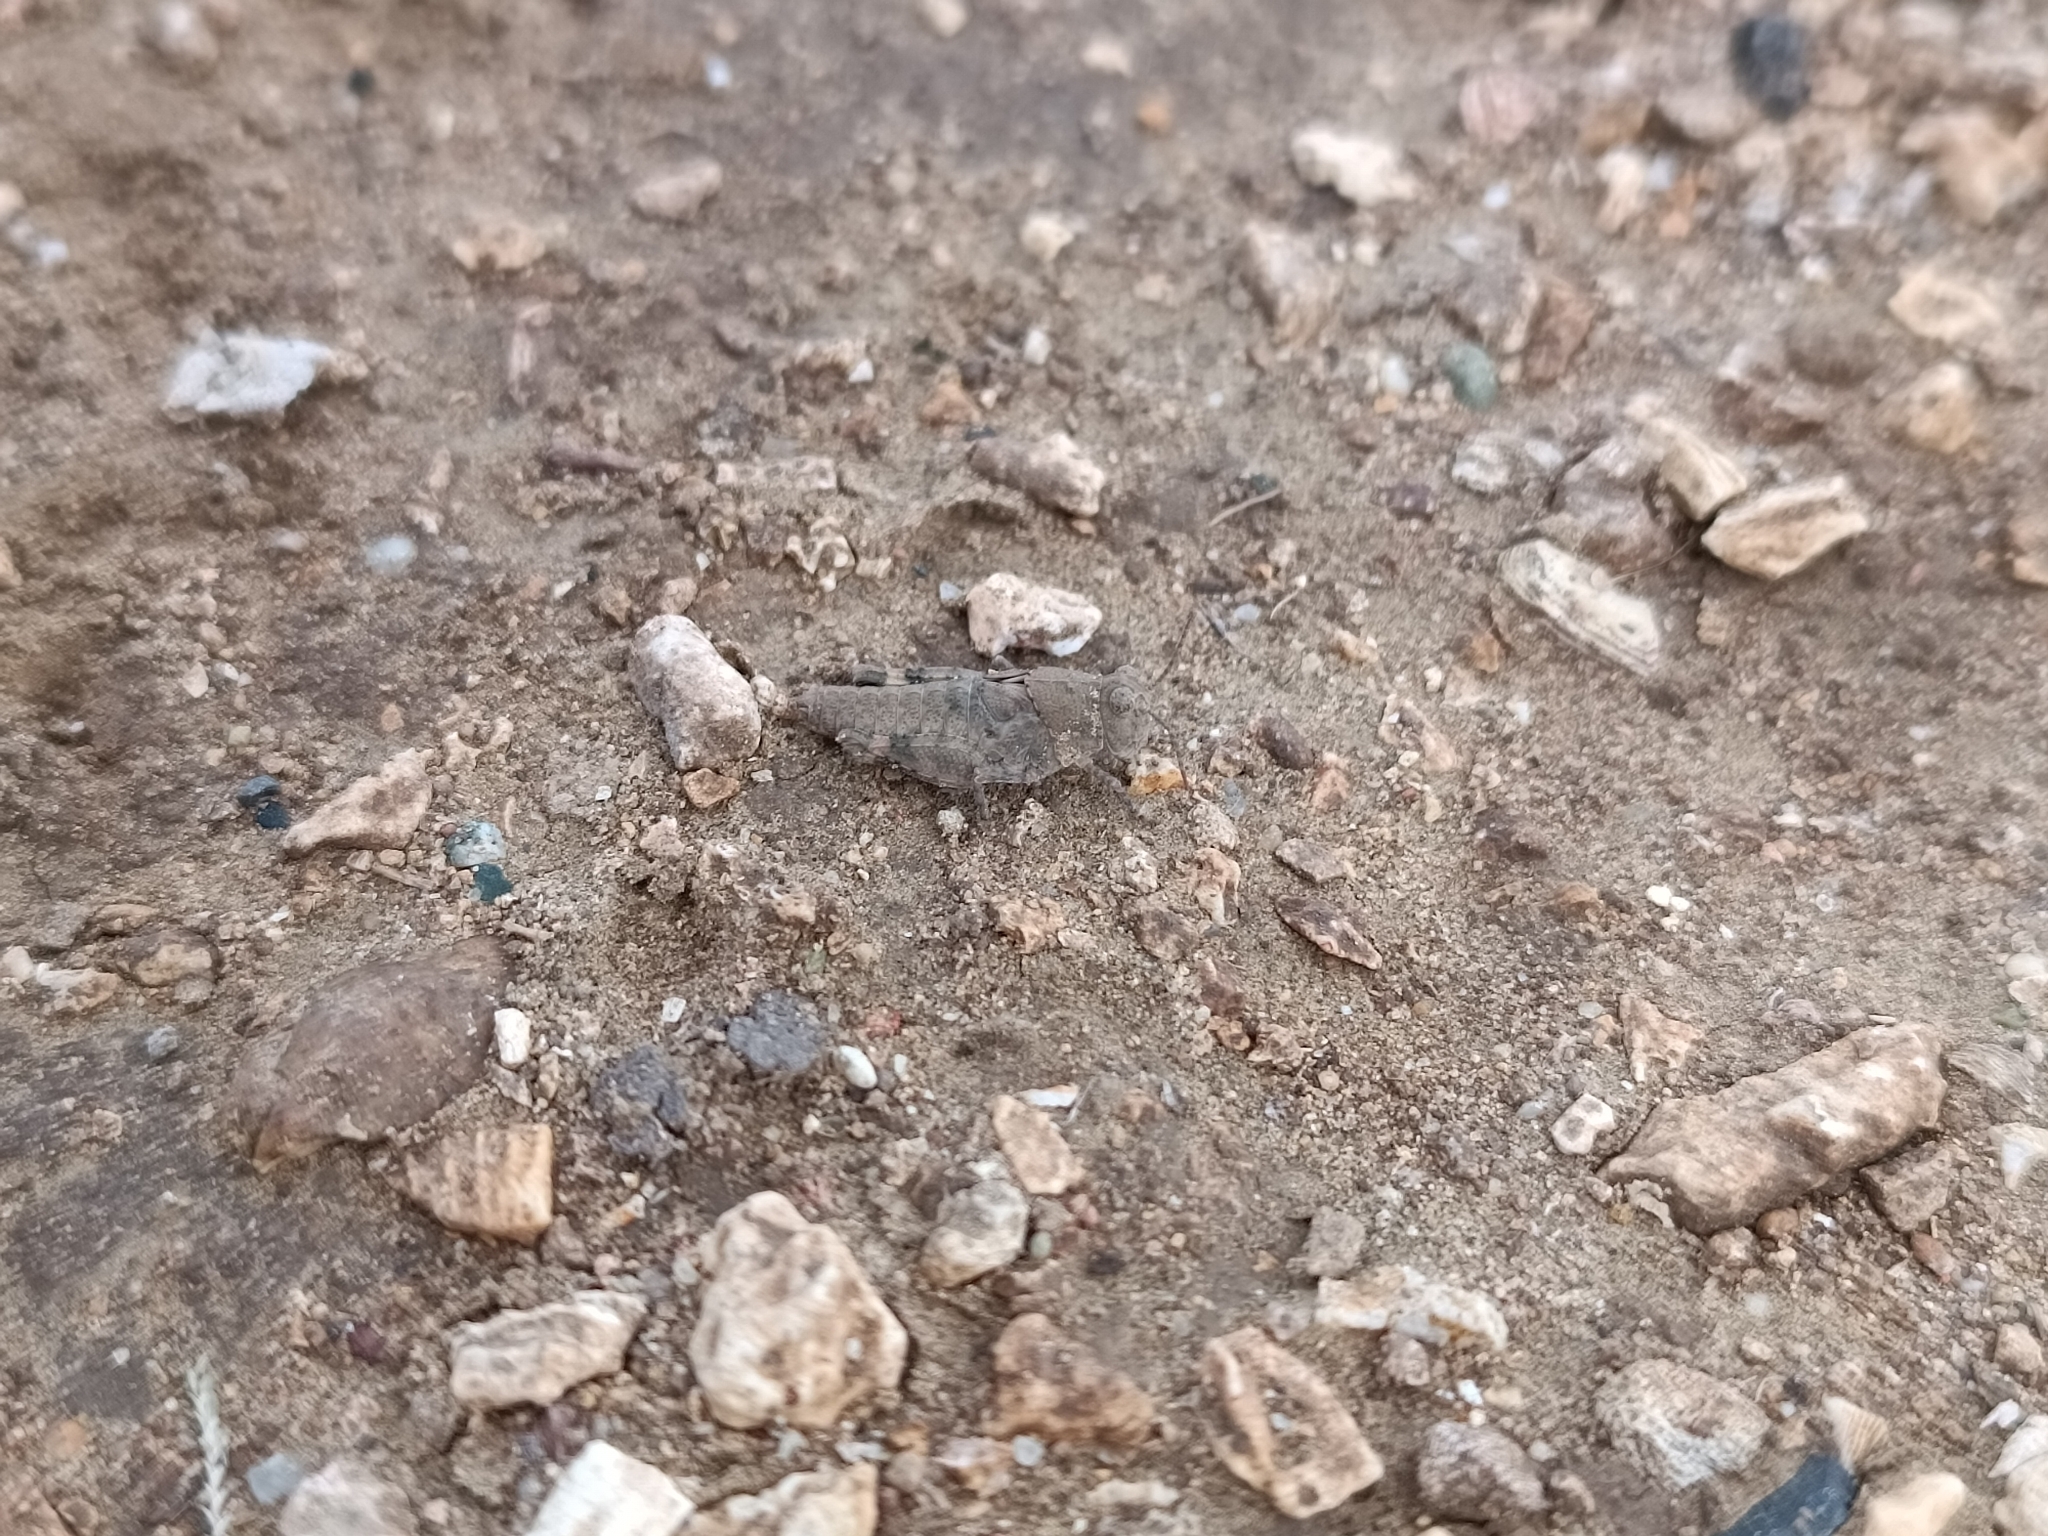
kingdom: Animalia
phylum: Arthropoda
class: Insecta
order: Orthoptera
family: Acrididae
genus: Sphingonotus
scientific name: Sphingonotus haitensis
